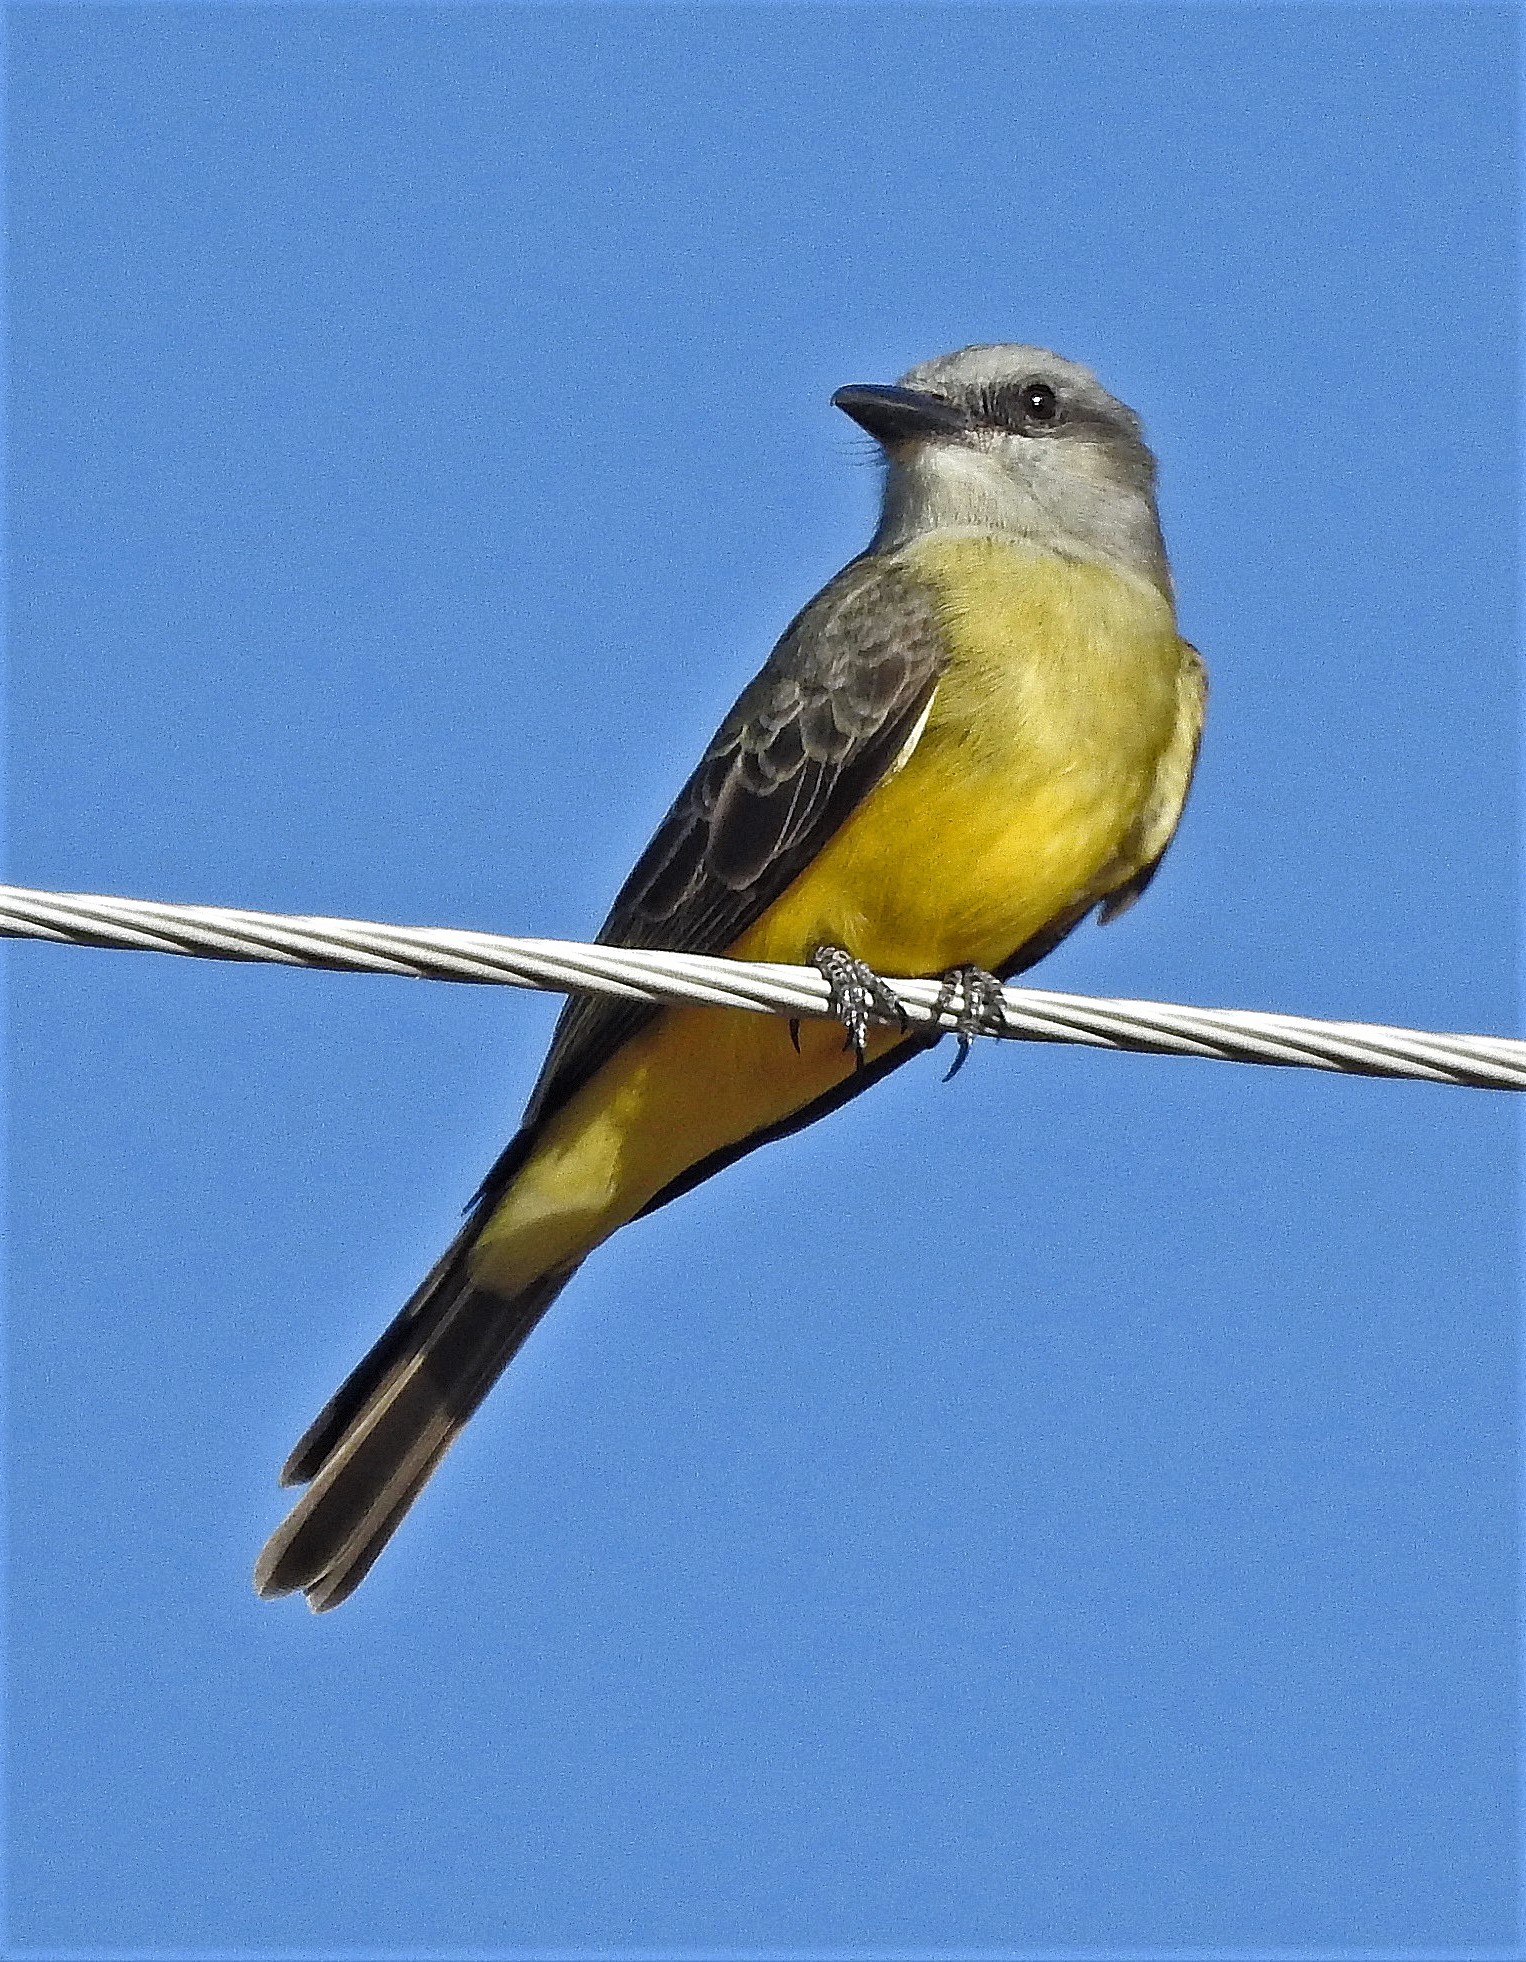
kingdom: Animalia
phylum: Chordata
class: Aves
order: Passeriformes
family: Tyrannidae
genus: Tyrannus
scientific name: Tyrannus melancholicus
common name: Tropical kingbird
